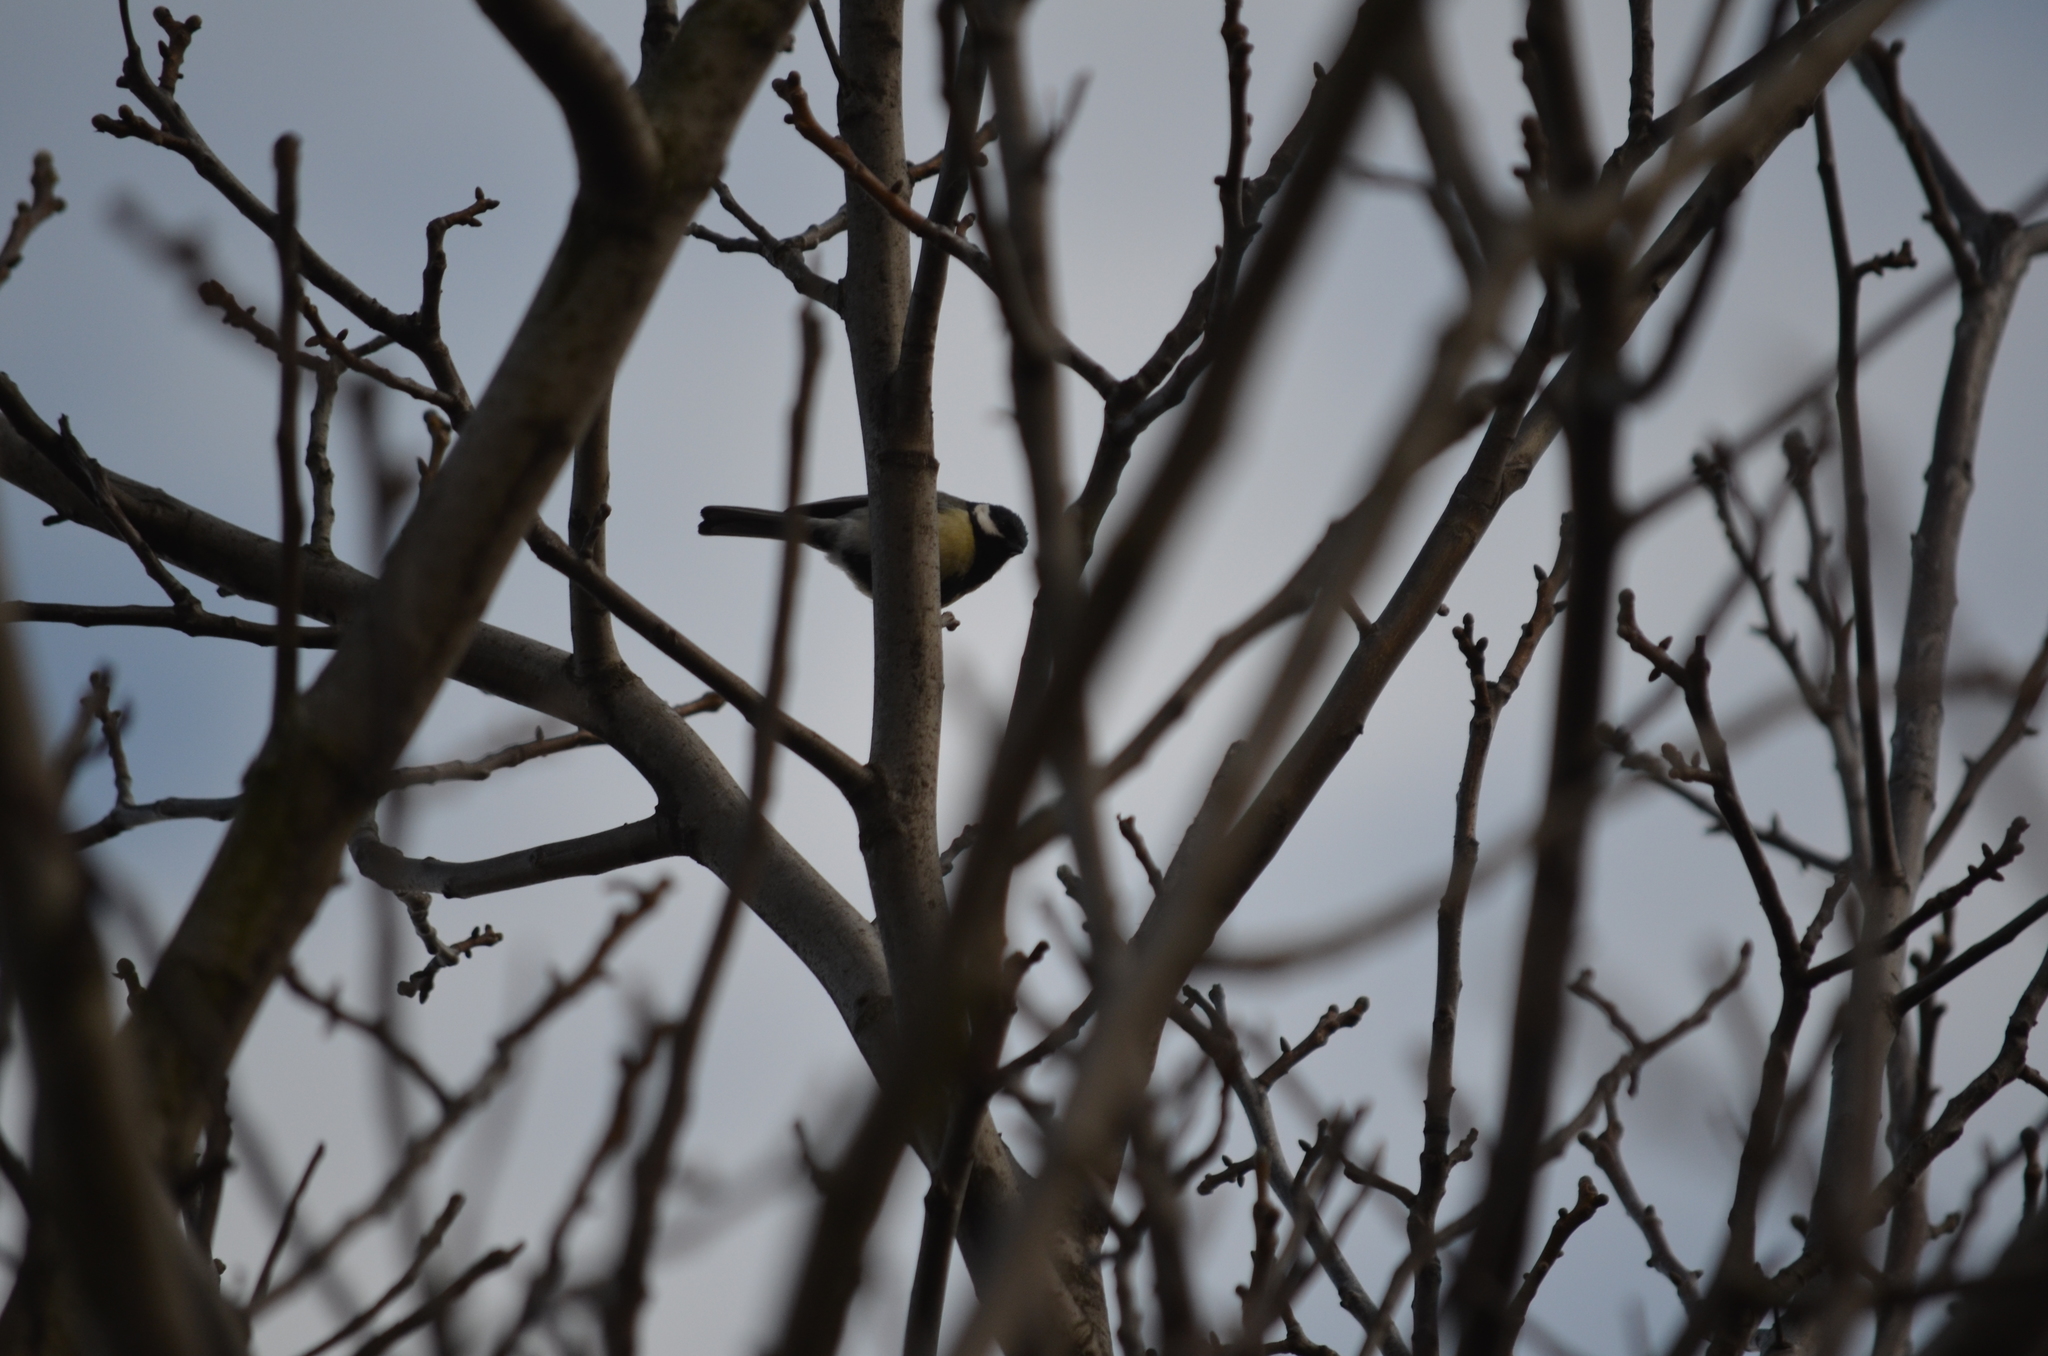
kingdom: Animalia
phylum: Chordata
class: Aves
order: Passeriformes
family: Paridae
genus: Parus
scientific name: Parus major
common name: Great tit
